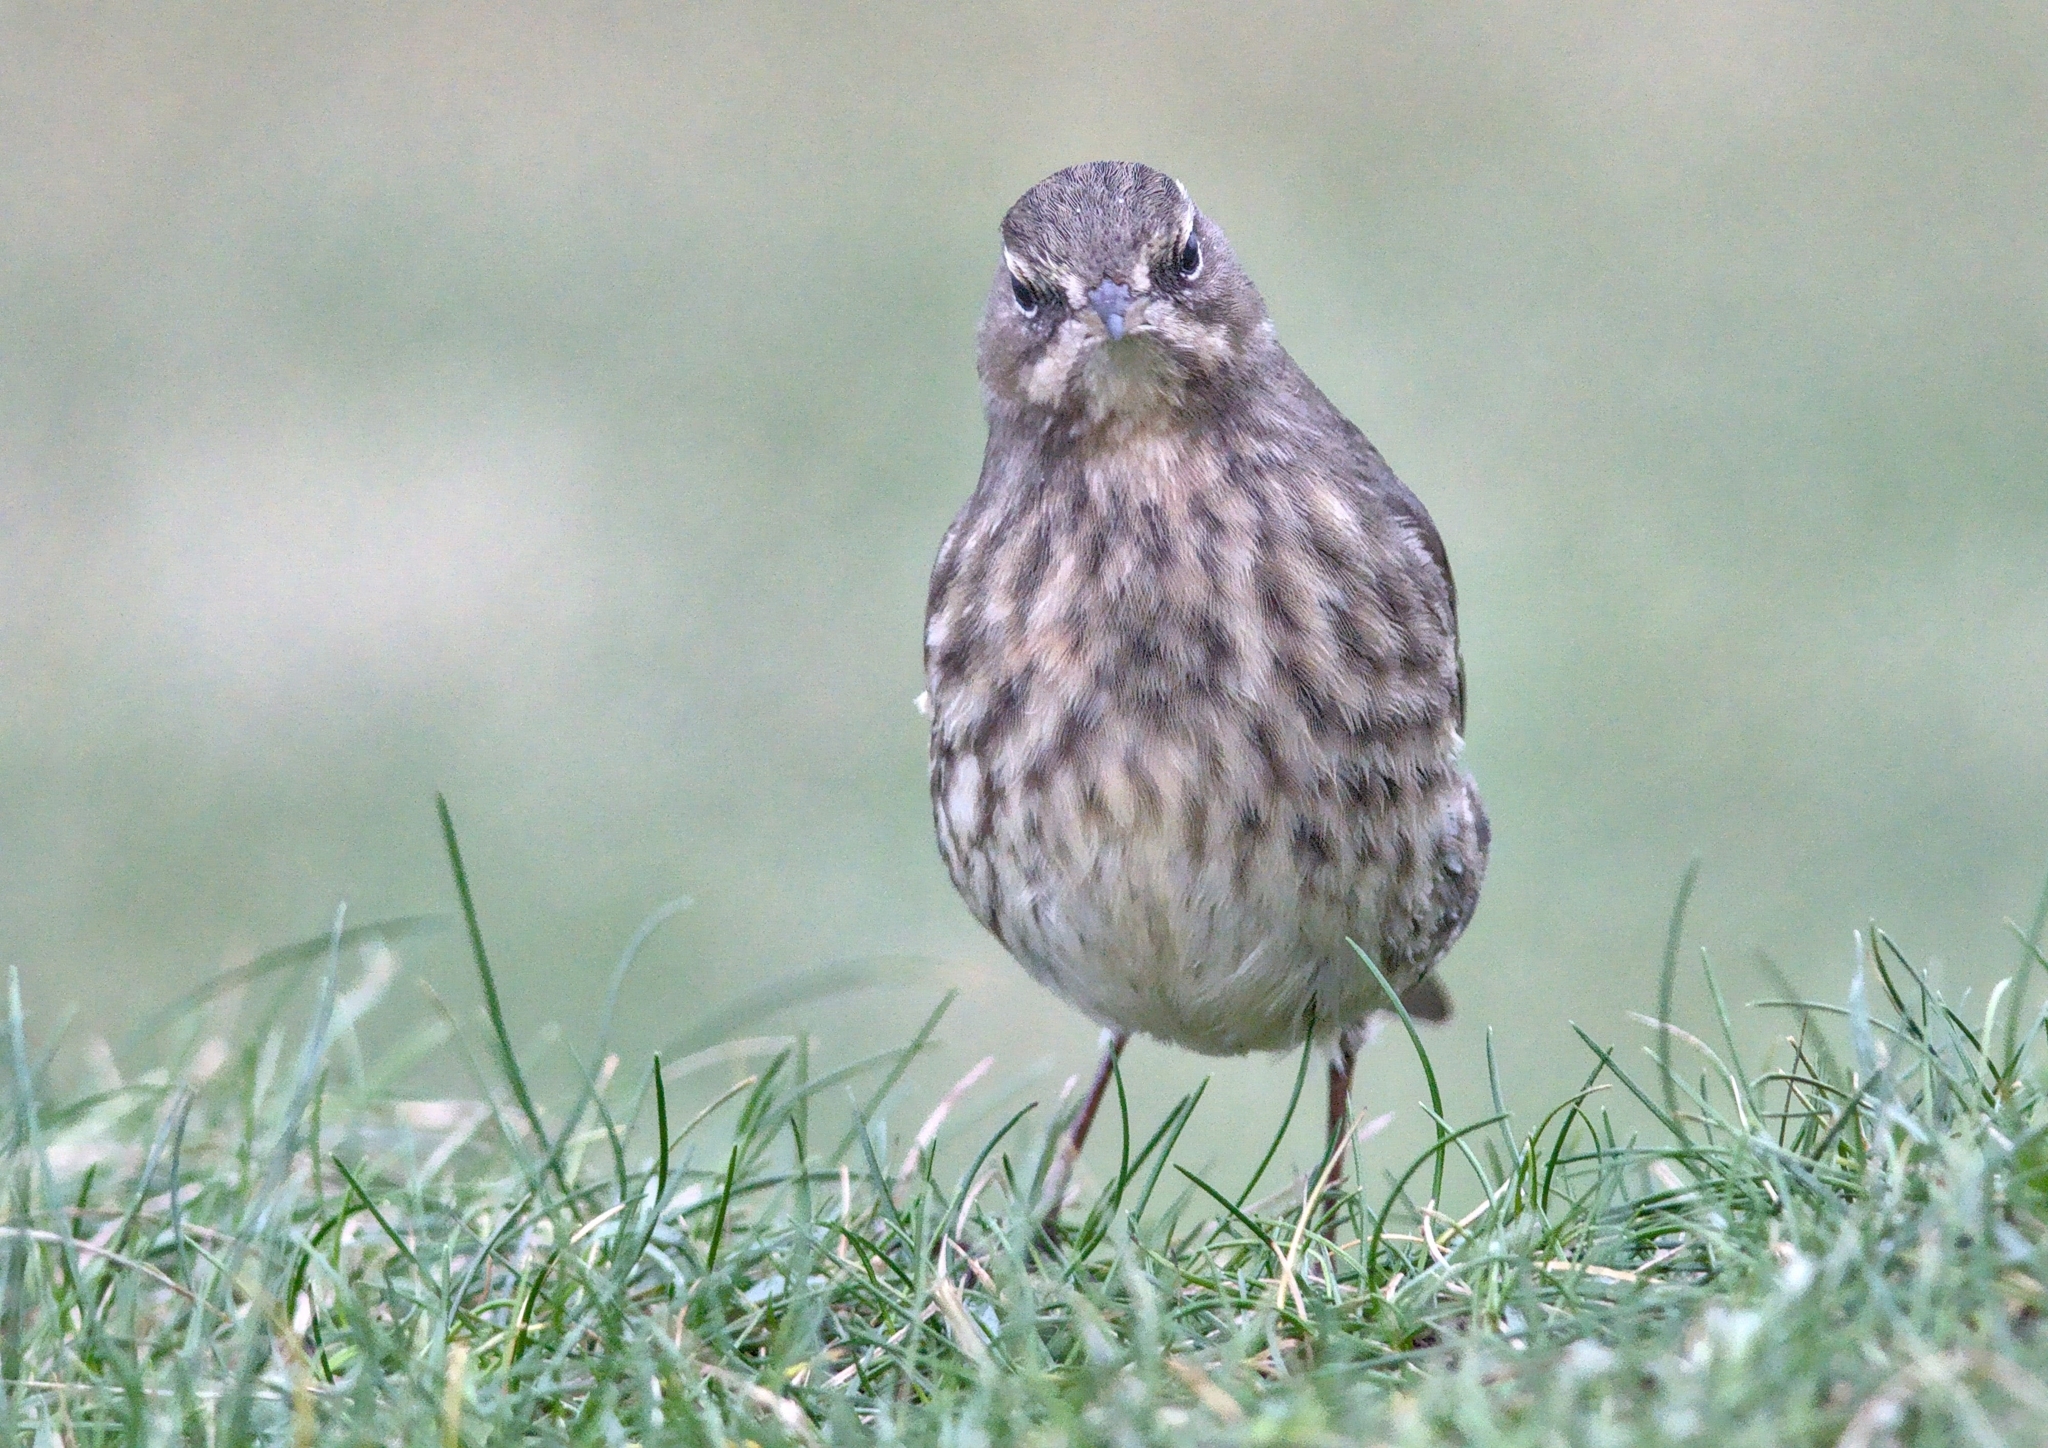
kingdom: Animalia
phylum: Chordata
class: Aves
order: Passeriformes
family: Motacillidae
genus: Anthus
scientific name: Anthus petrosus
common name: Eurasian rock pipit
